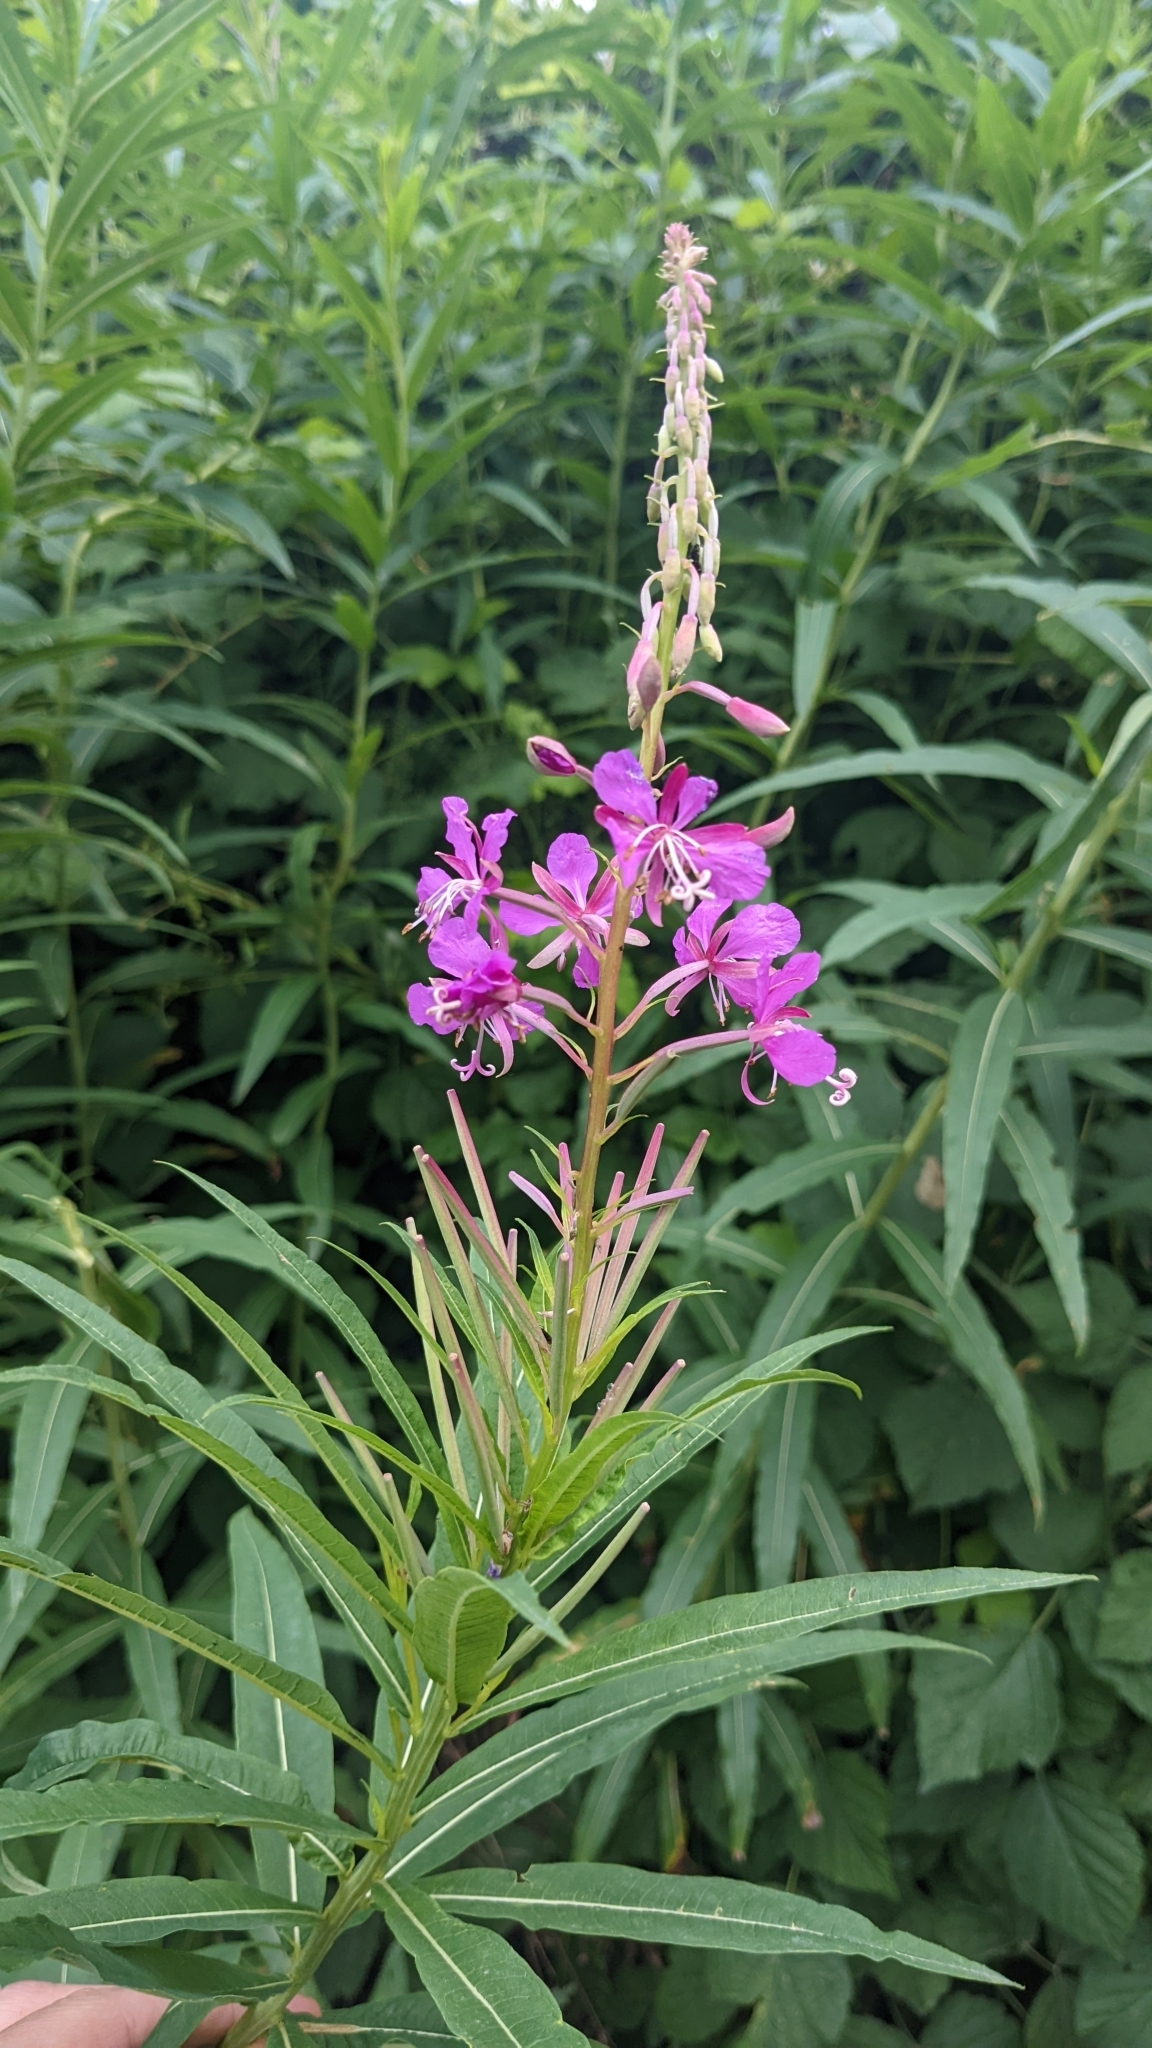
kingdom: Plantae
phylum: Tracheophyta
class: Magnoliopsida
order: Myrtales
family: Onagraceae
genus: Chamaenerion
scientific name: Chamaenerion angustifolium
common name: Fireweed
